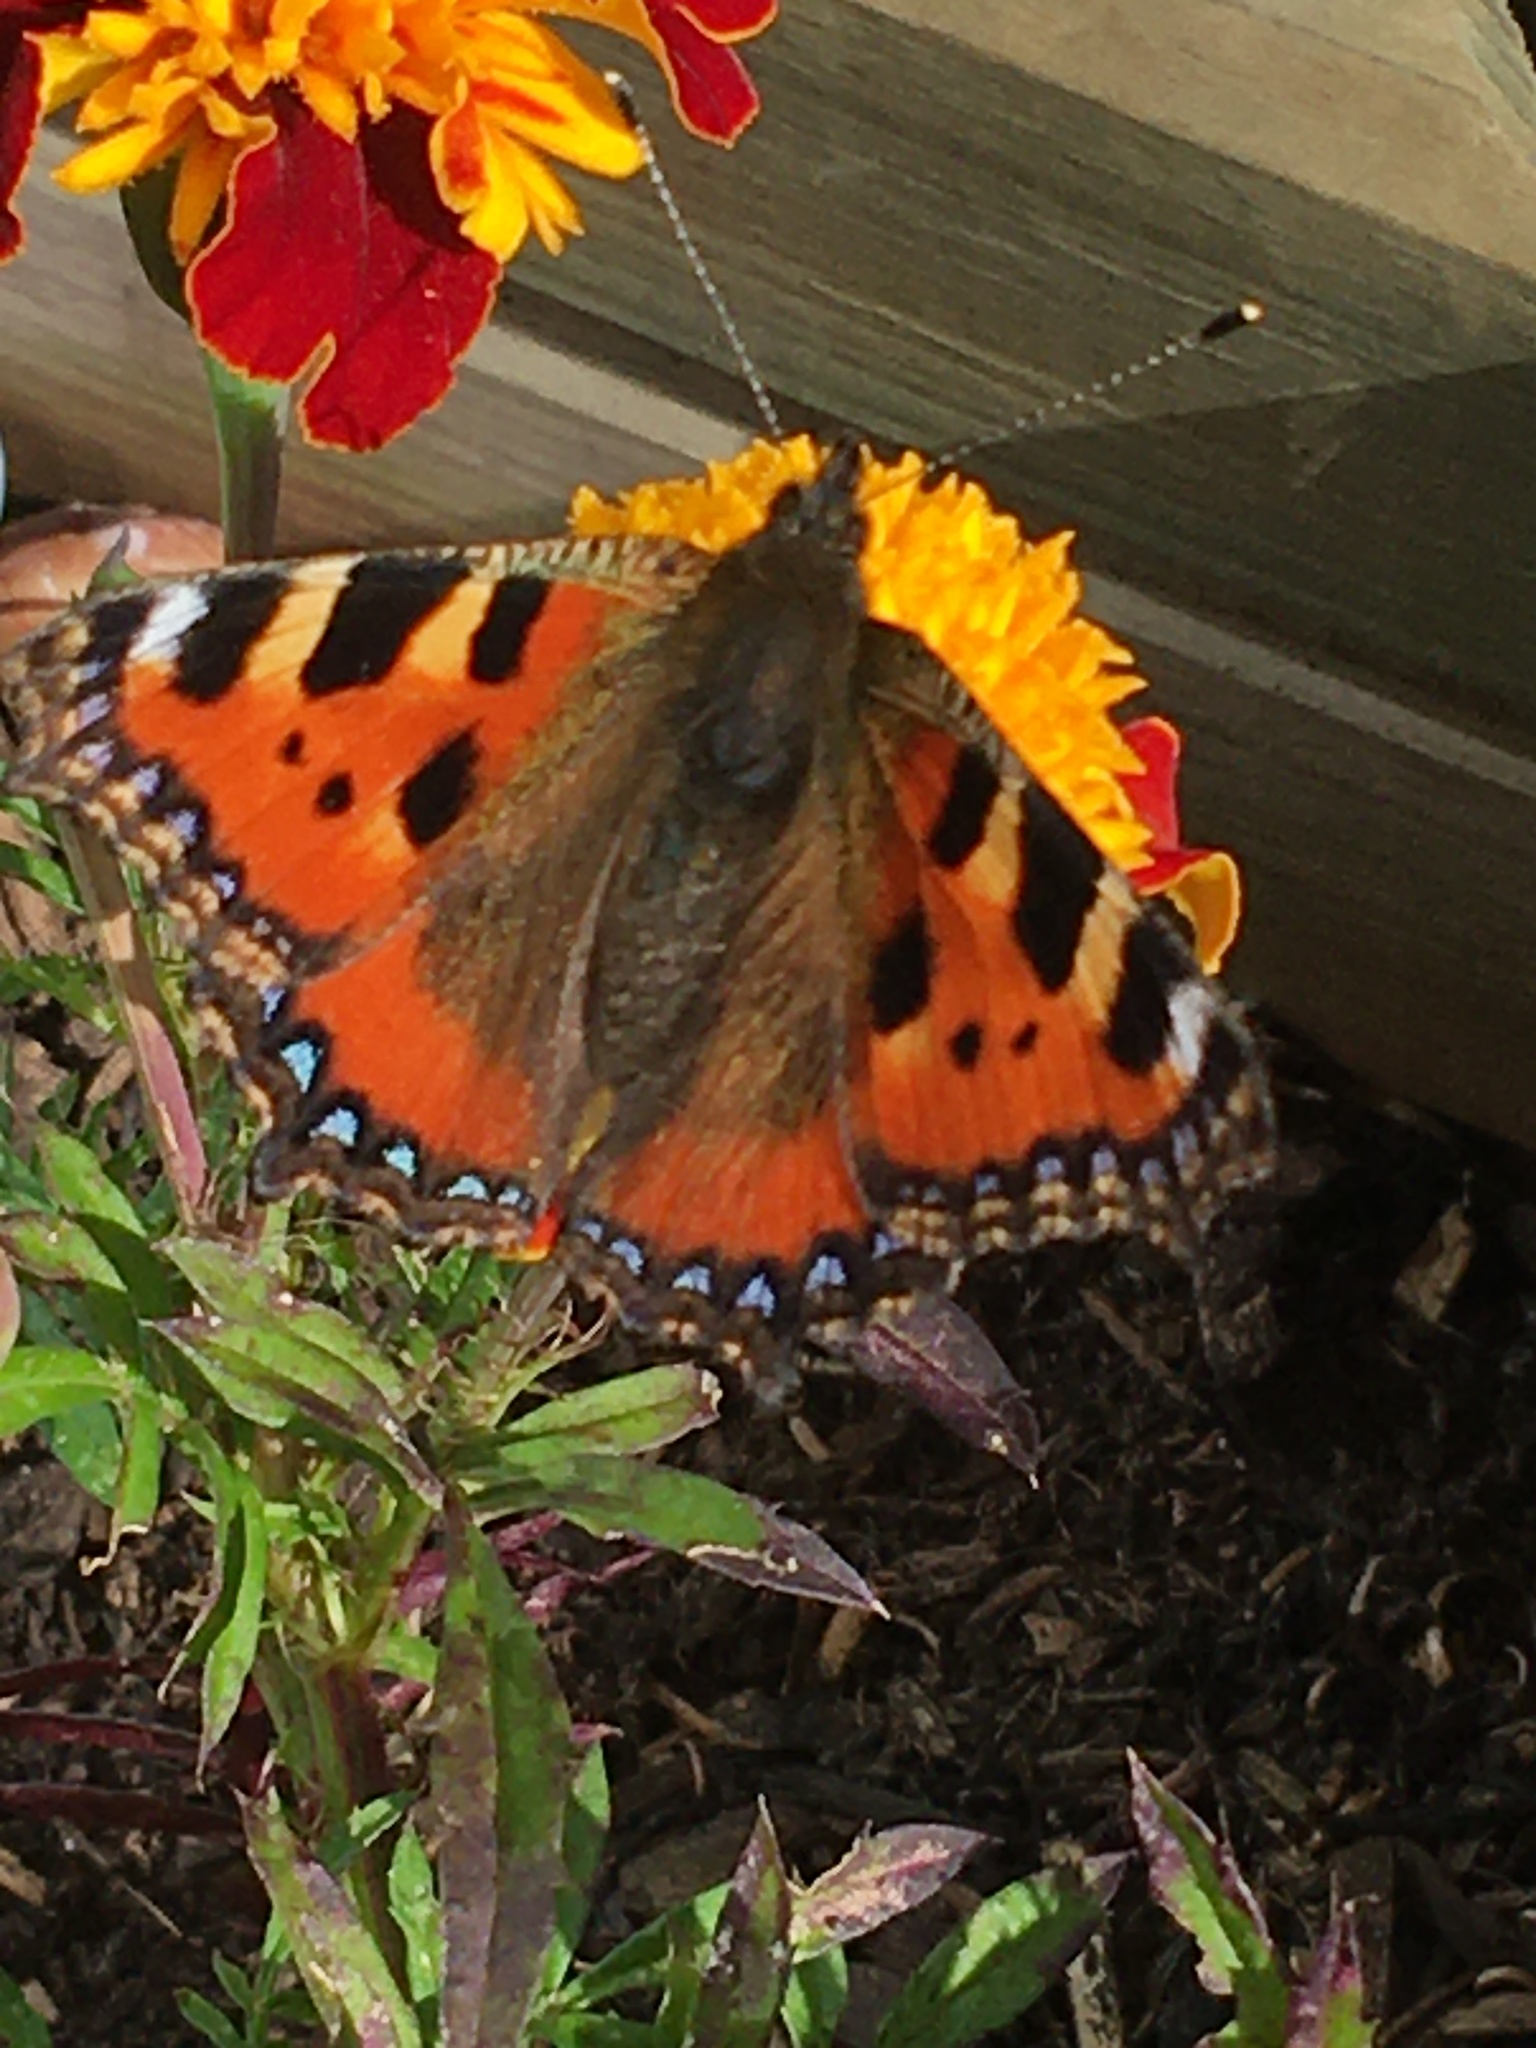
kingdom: Animalia
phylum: Arthropoda
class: Insecta
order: Lepidoptera
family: Nymphalidae
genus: Aglais
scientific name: Aglais urticae
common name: Small tortoiseshell
